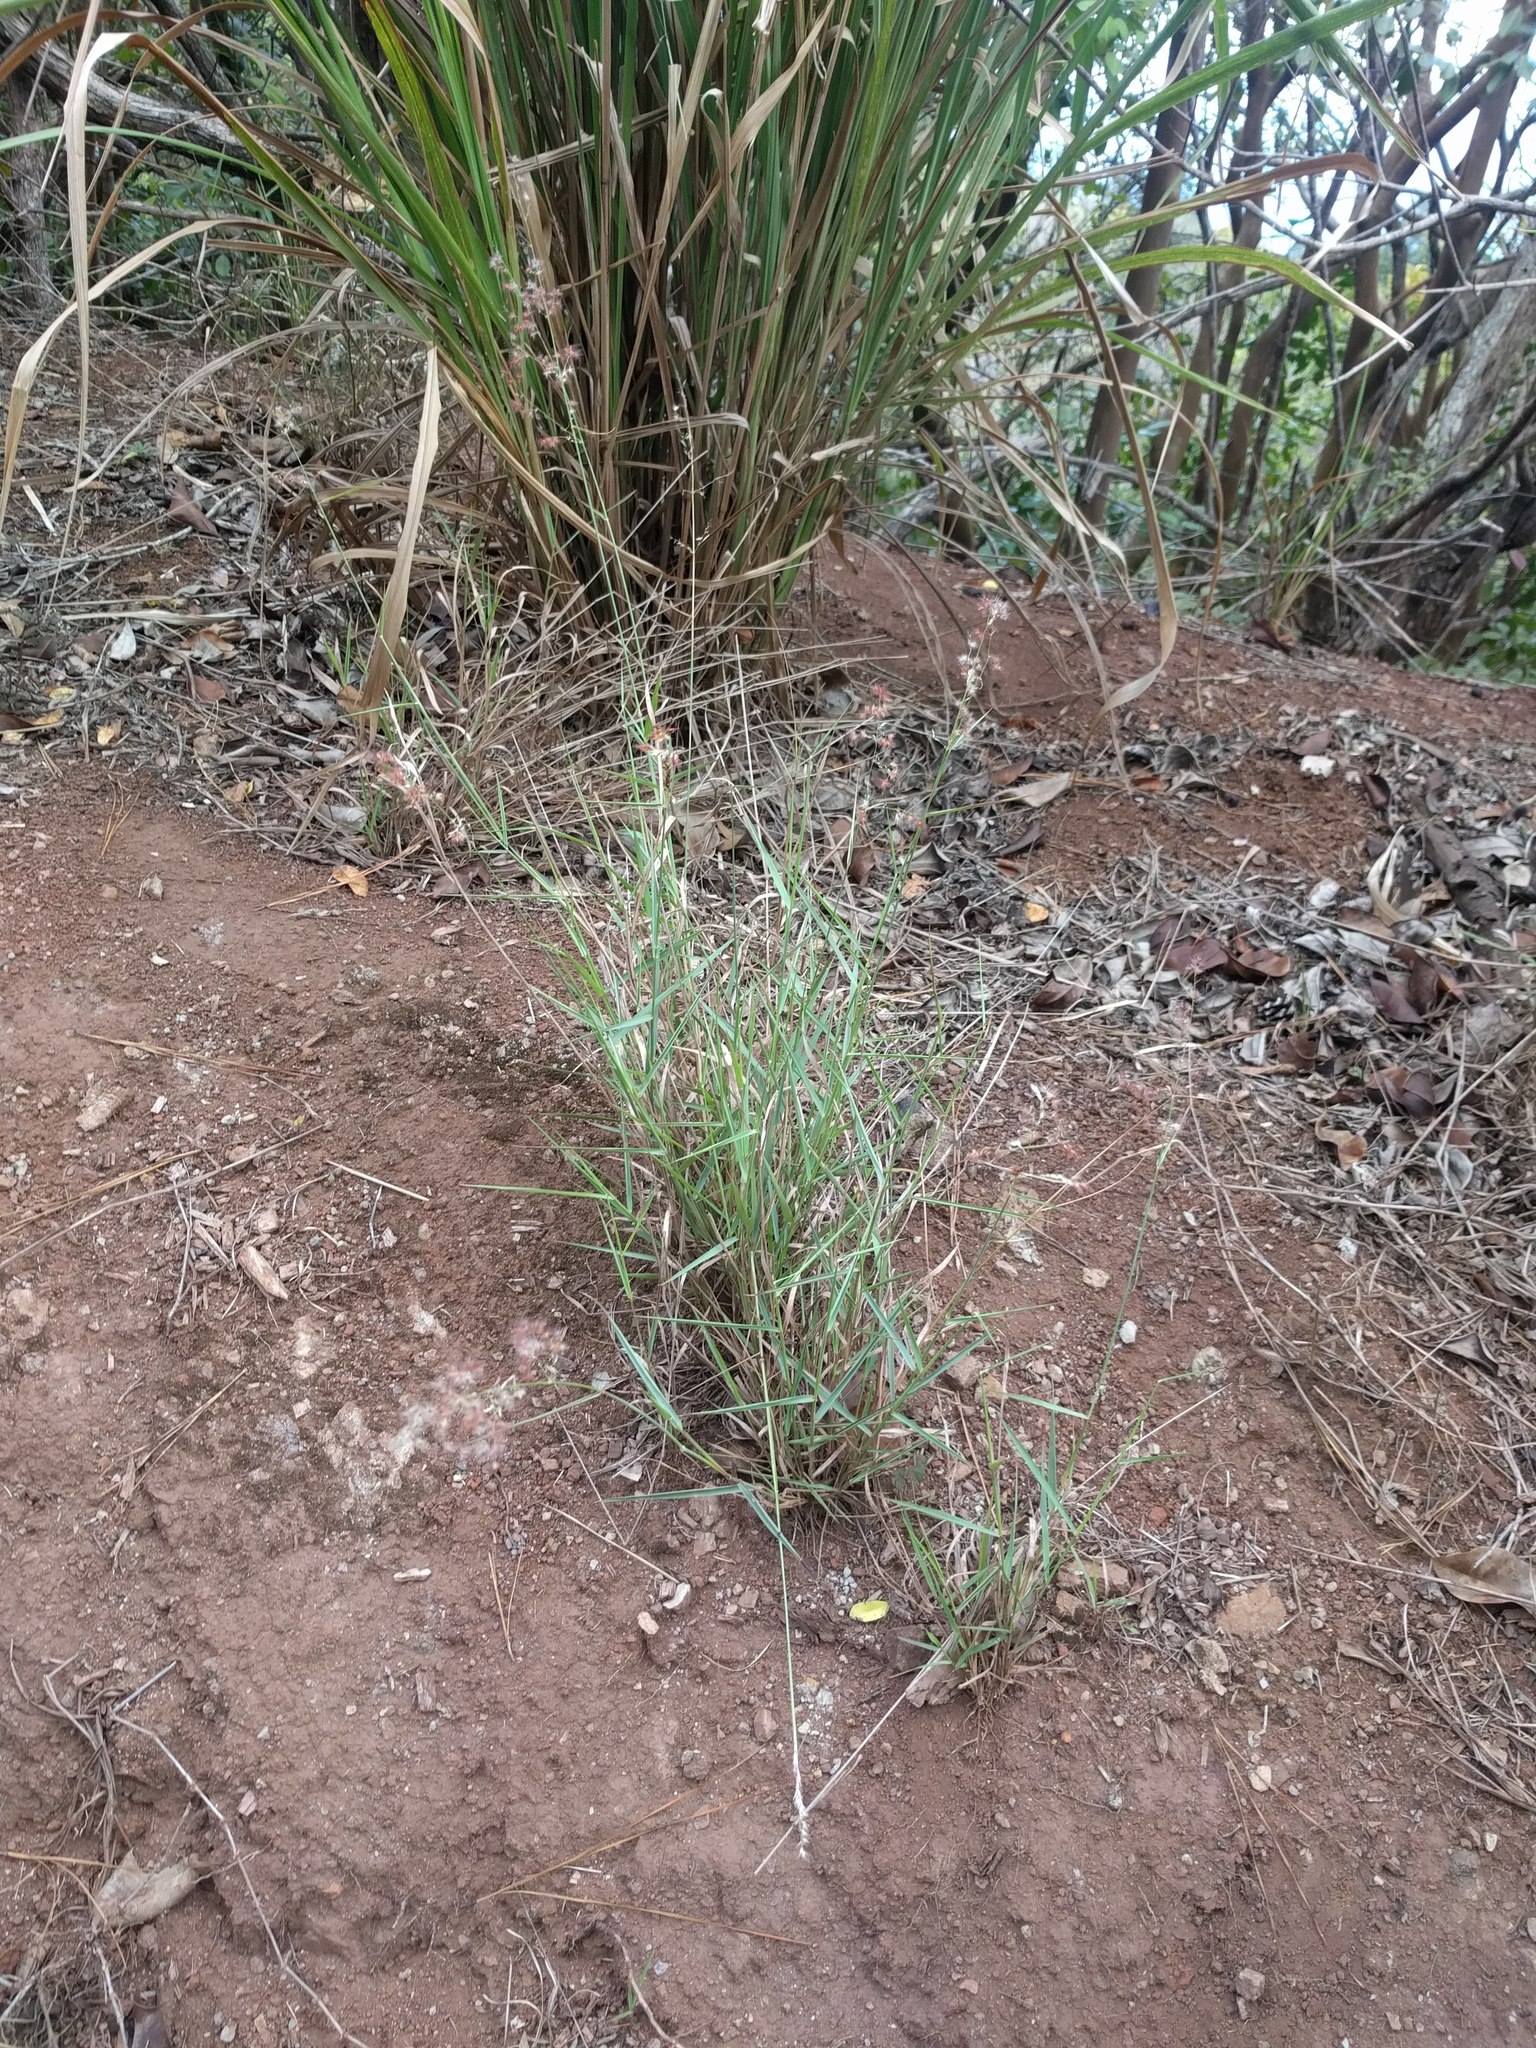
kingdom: Plantae
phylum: Tracheophyta
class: Liliopsida
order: Poales
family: Poaceae
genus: Melinis
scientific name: Melinis repens
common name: Rose natal grass
